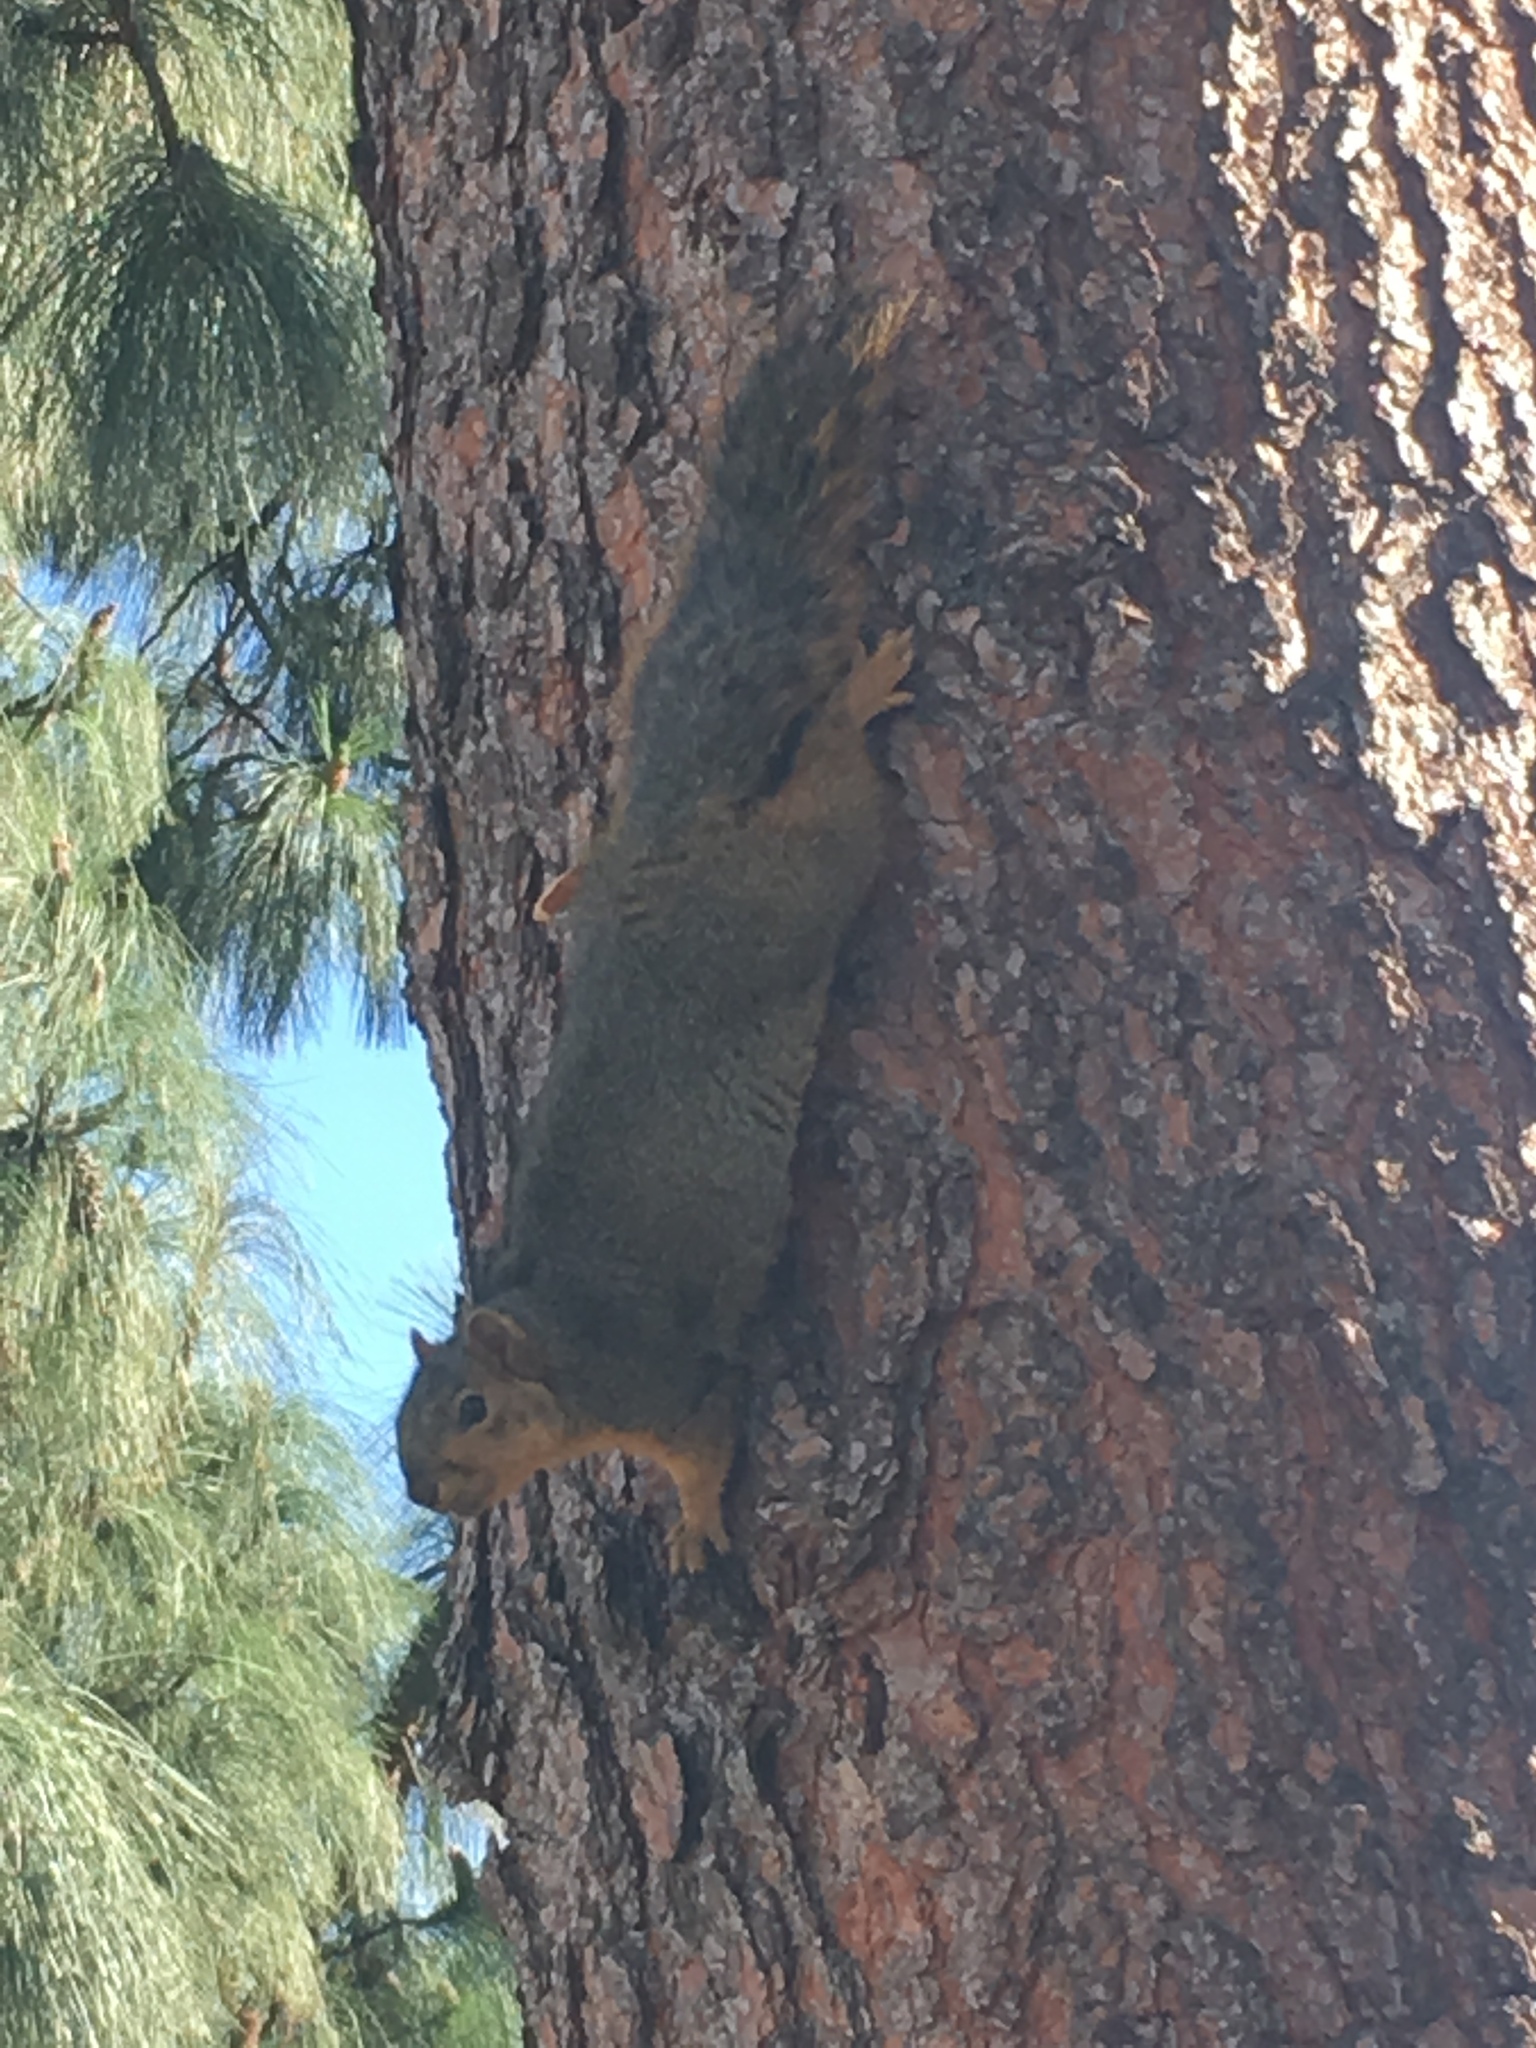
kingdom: Animalia
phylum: Chordata
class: Mammalia
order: Rodentia
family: Sciuridae
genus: Sciurus
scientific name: Sciurus niger
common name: Fox squirrel
